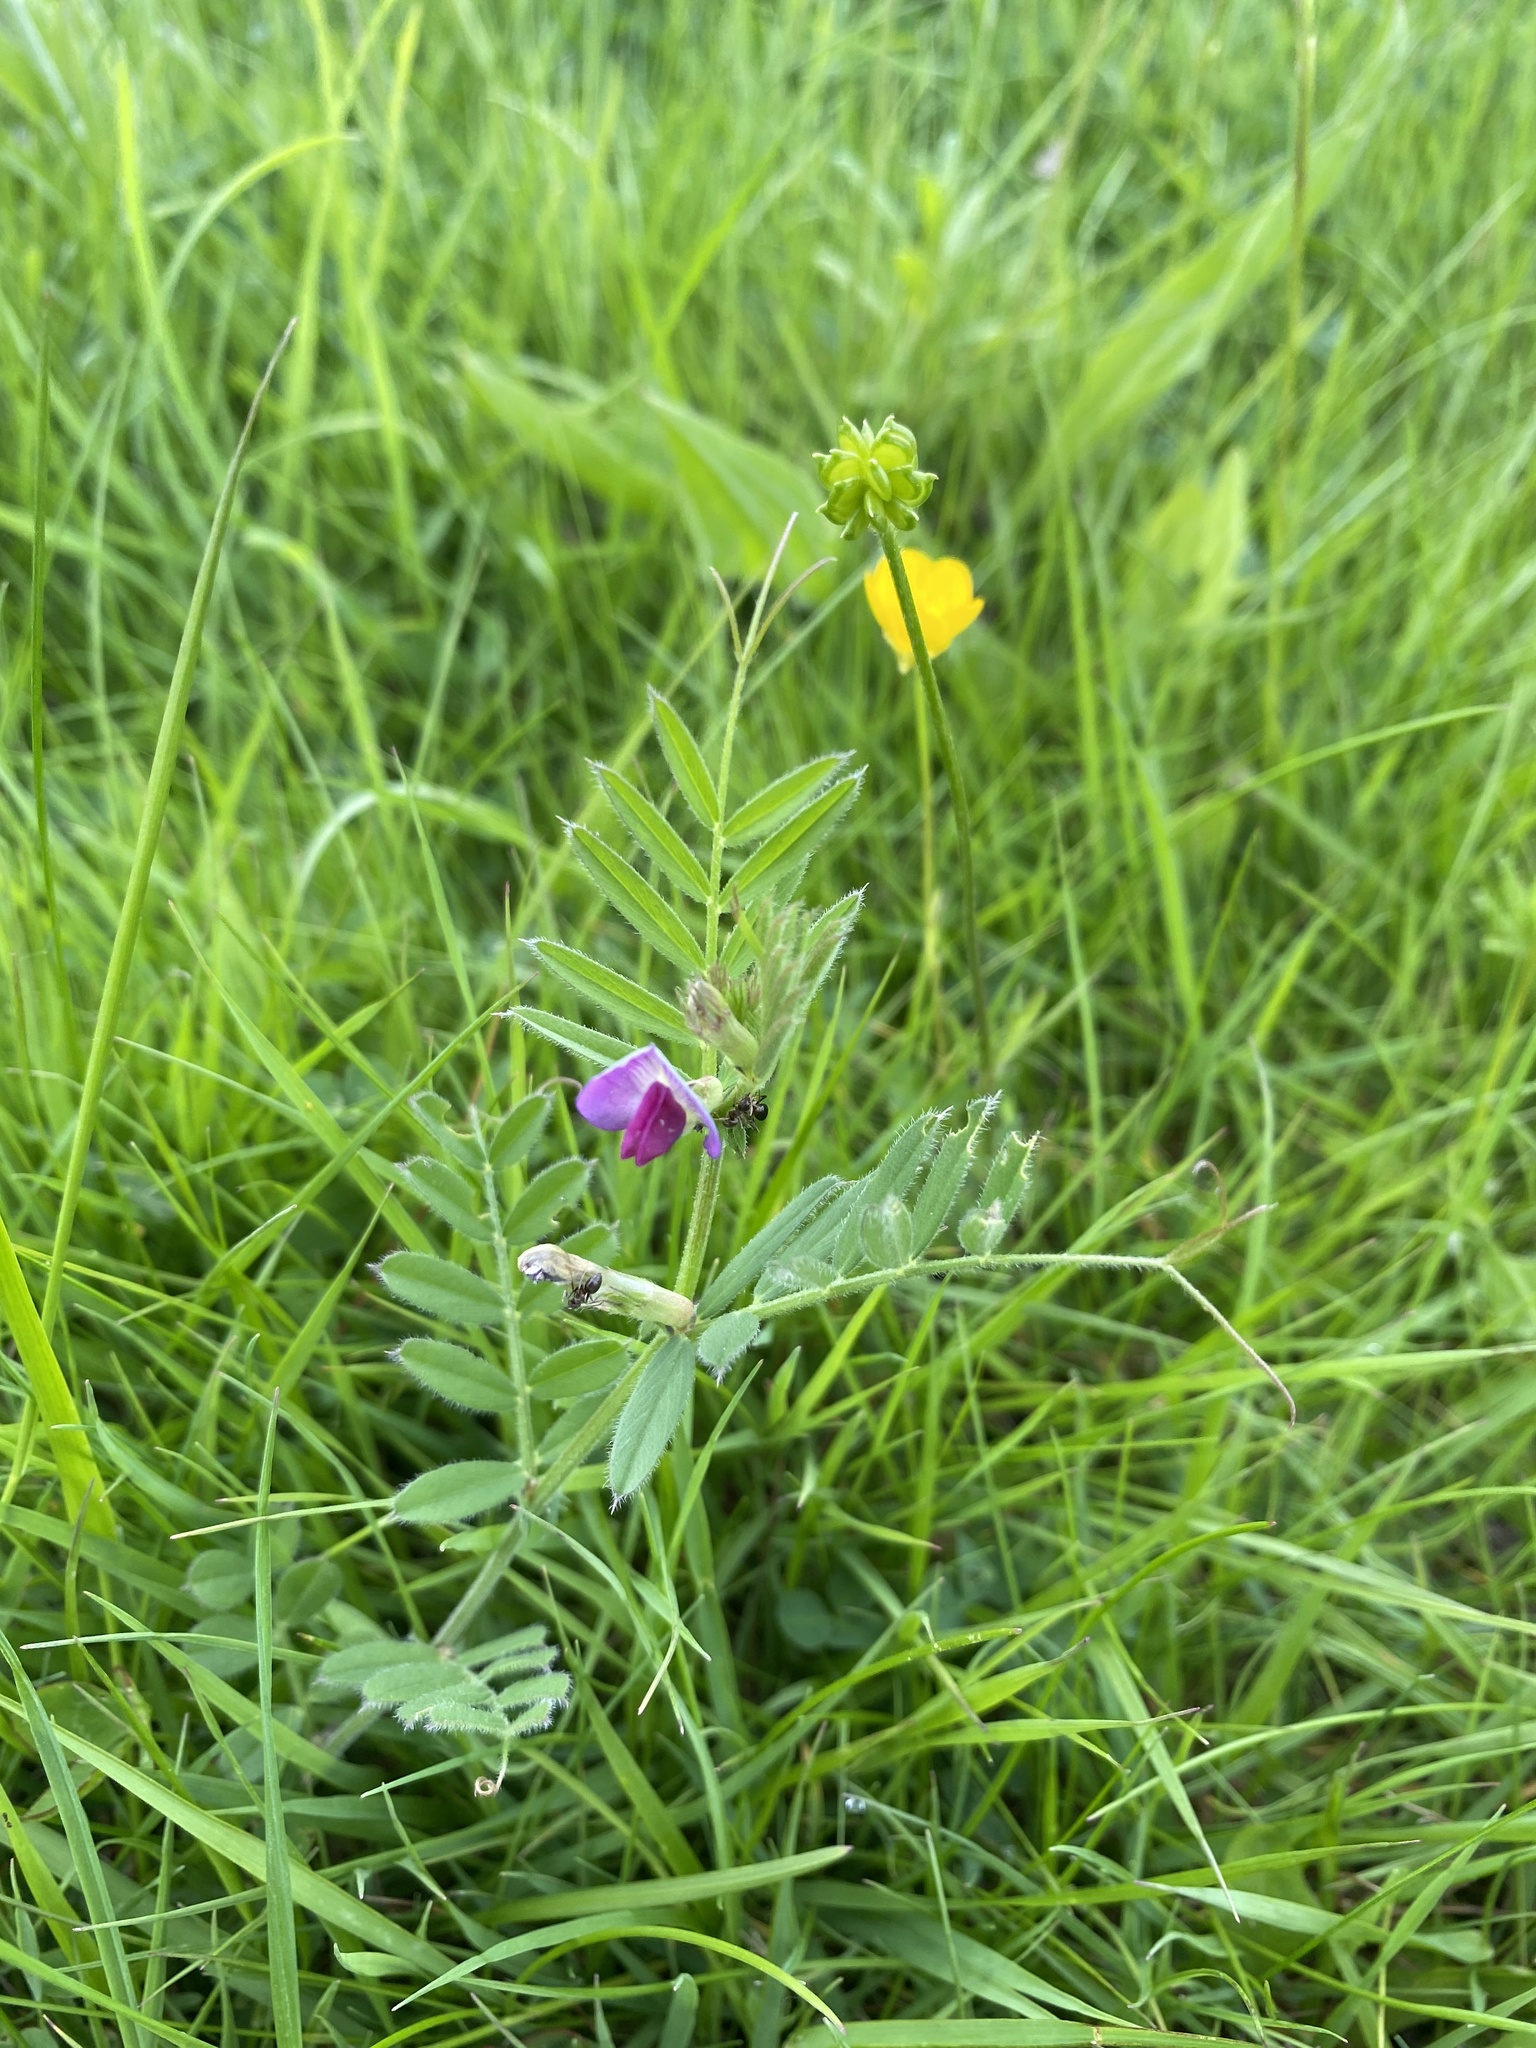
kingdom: Plantae
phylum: Tracheophyta
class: Magnoliopsida
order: Fabales
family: Fabaceae
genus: Vicia
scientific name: Vicia sativa
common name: Garden vetch
